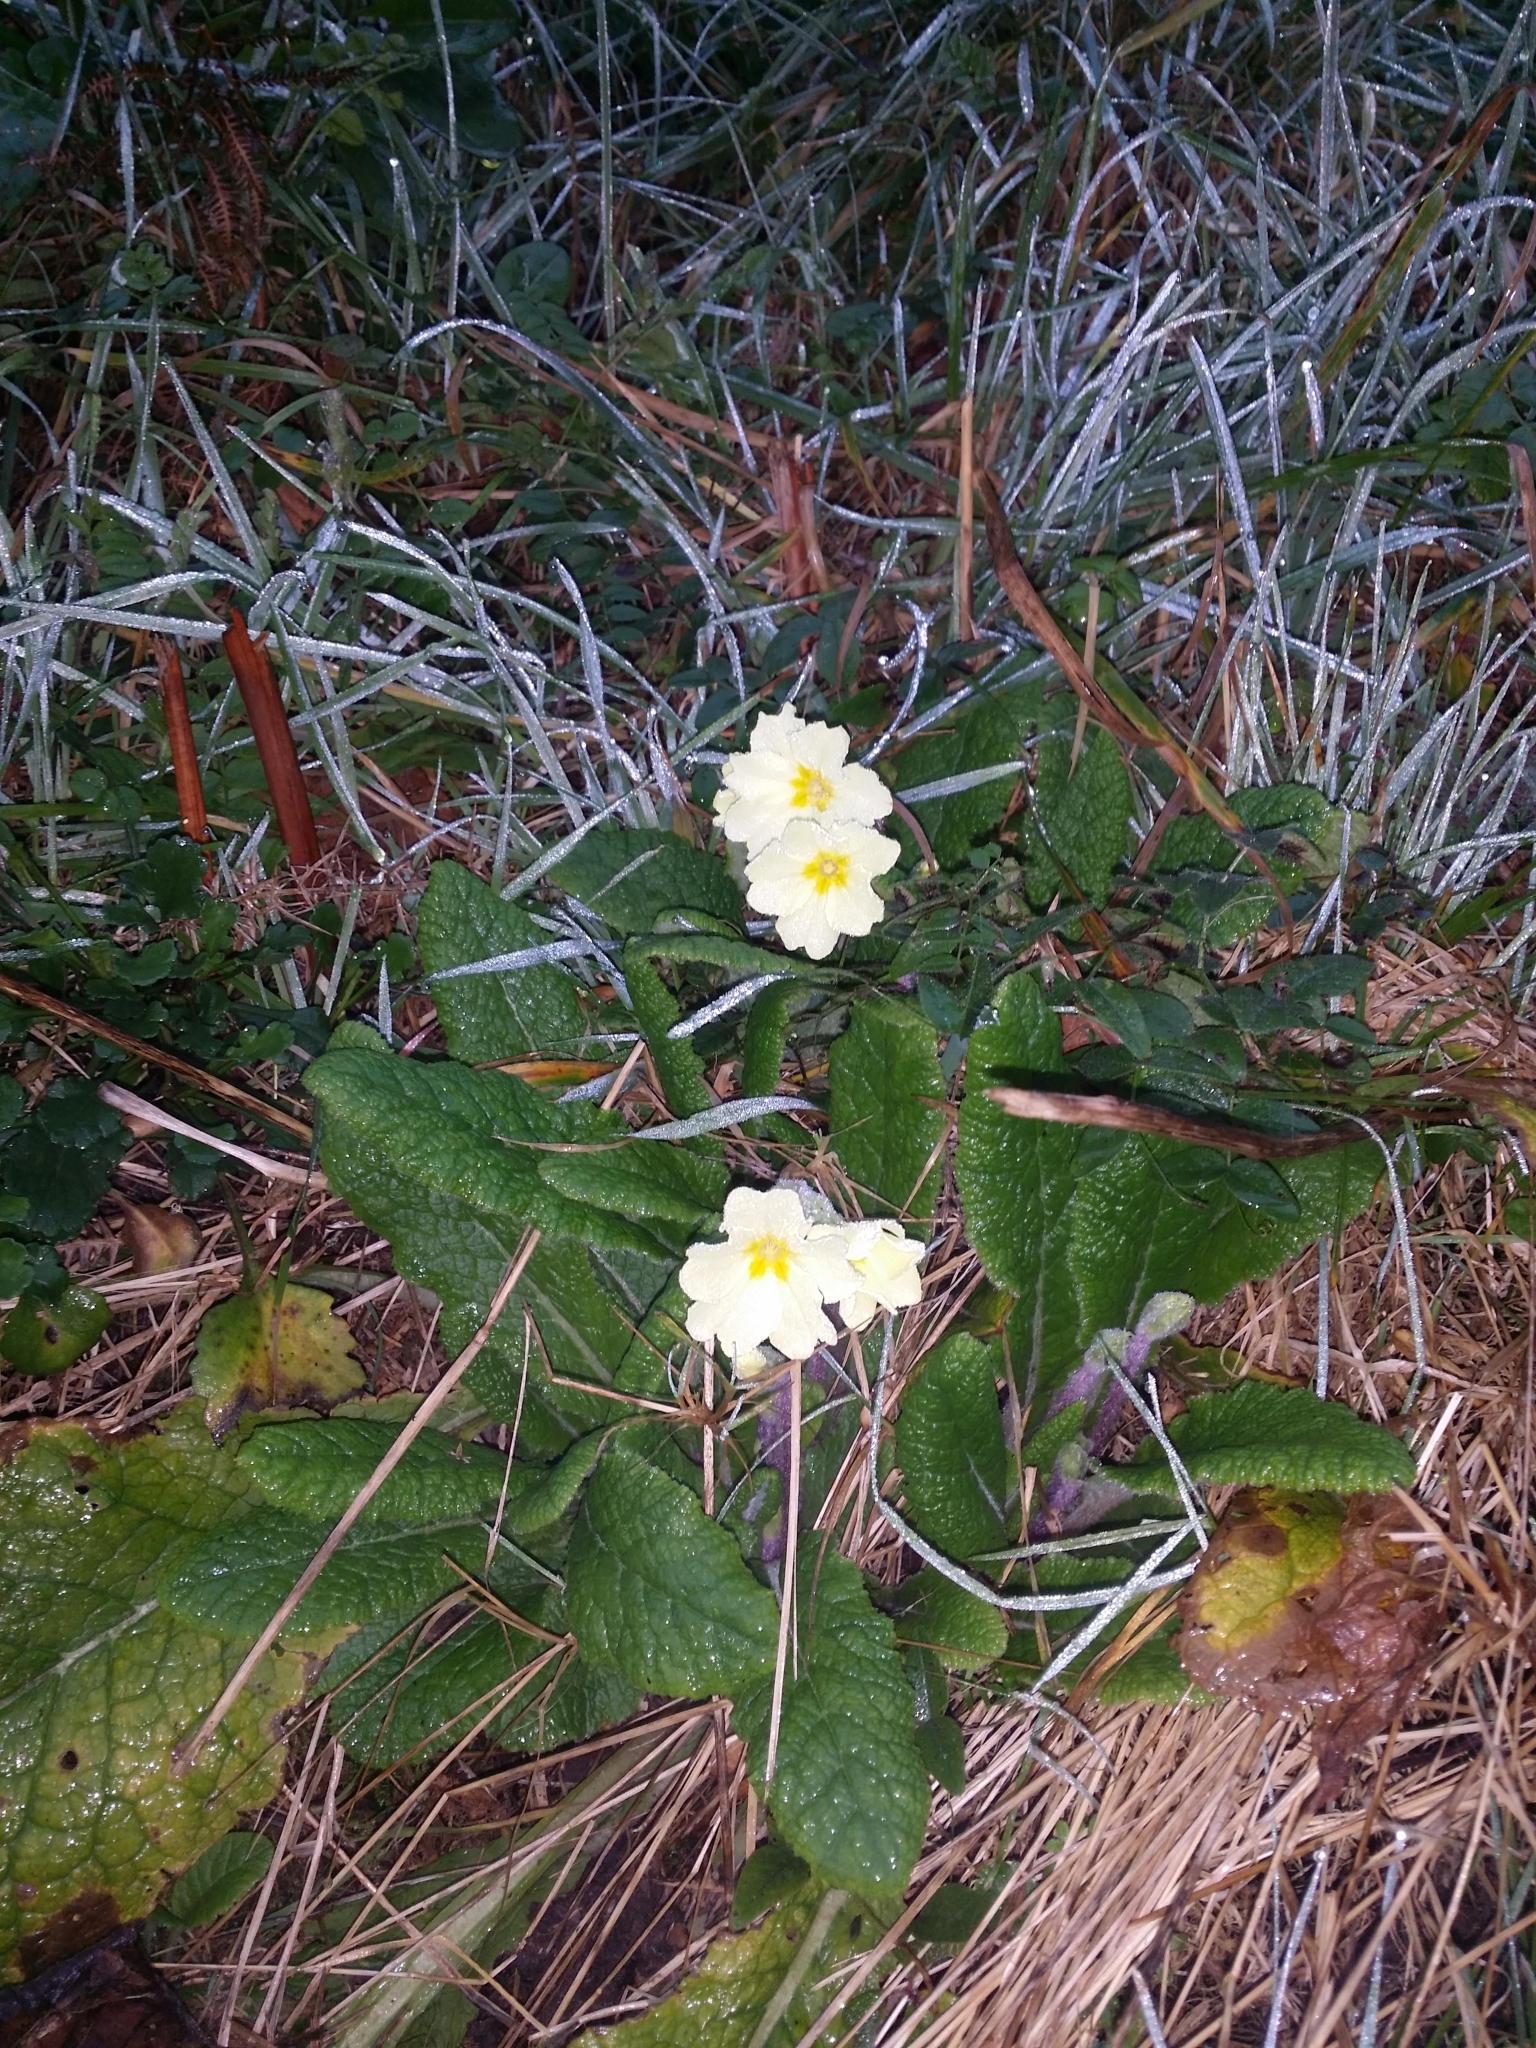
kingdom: Plantae
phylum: Tracheophyta
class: Magnoliopsida
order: Ericales
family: Primulaceae
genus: Primula
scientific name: Primula vulgaris
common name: Primrose
